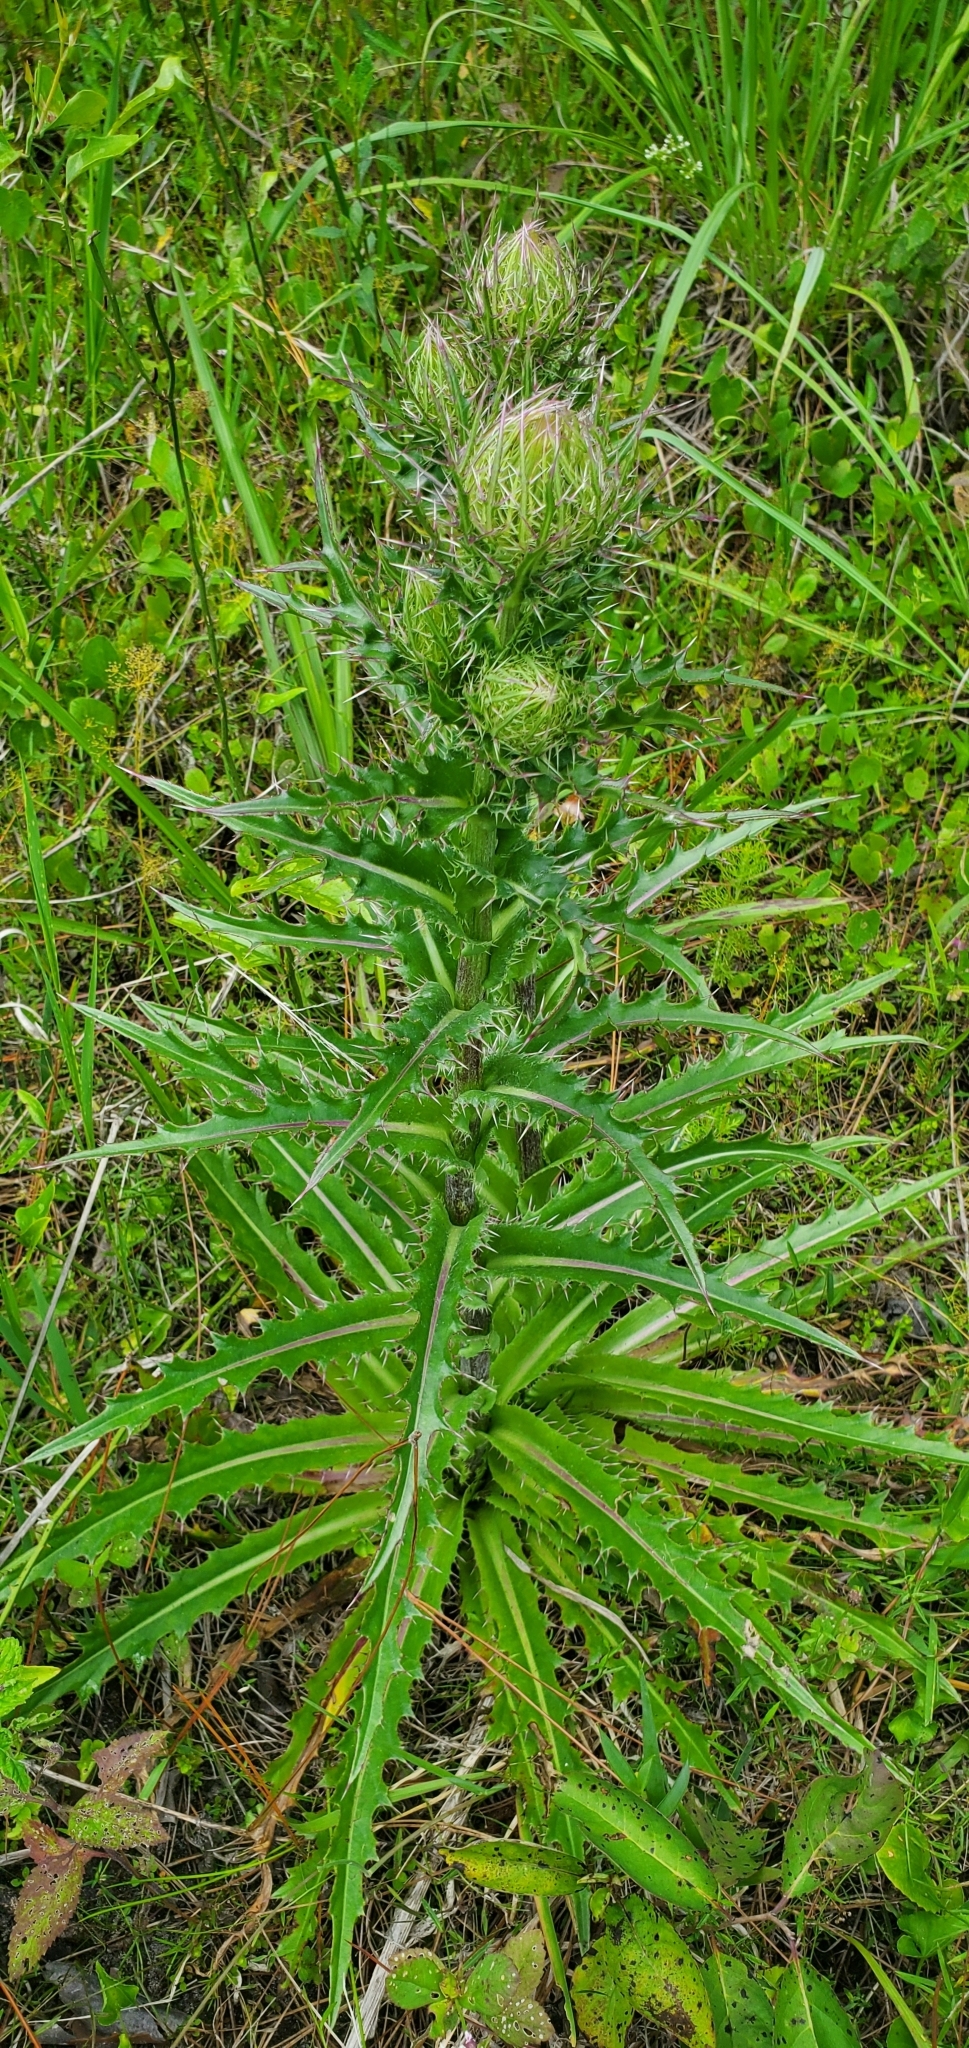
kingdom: Plantae
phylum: Tracheophyta
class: Magnoliopsida
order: Asterales
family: Asteraceae
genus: Cirsium
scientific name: Cirsium horridulum
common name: Bristly thistle
